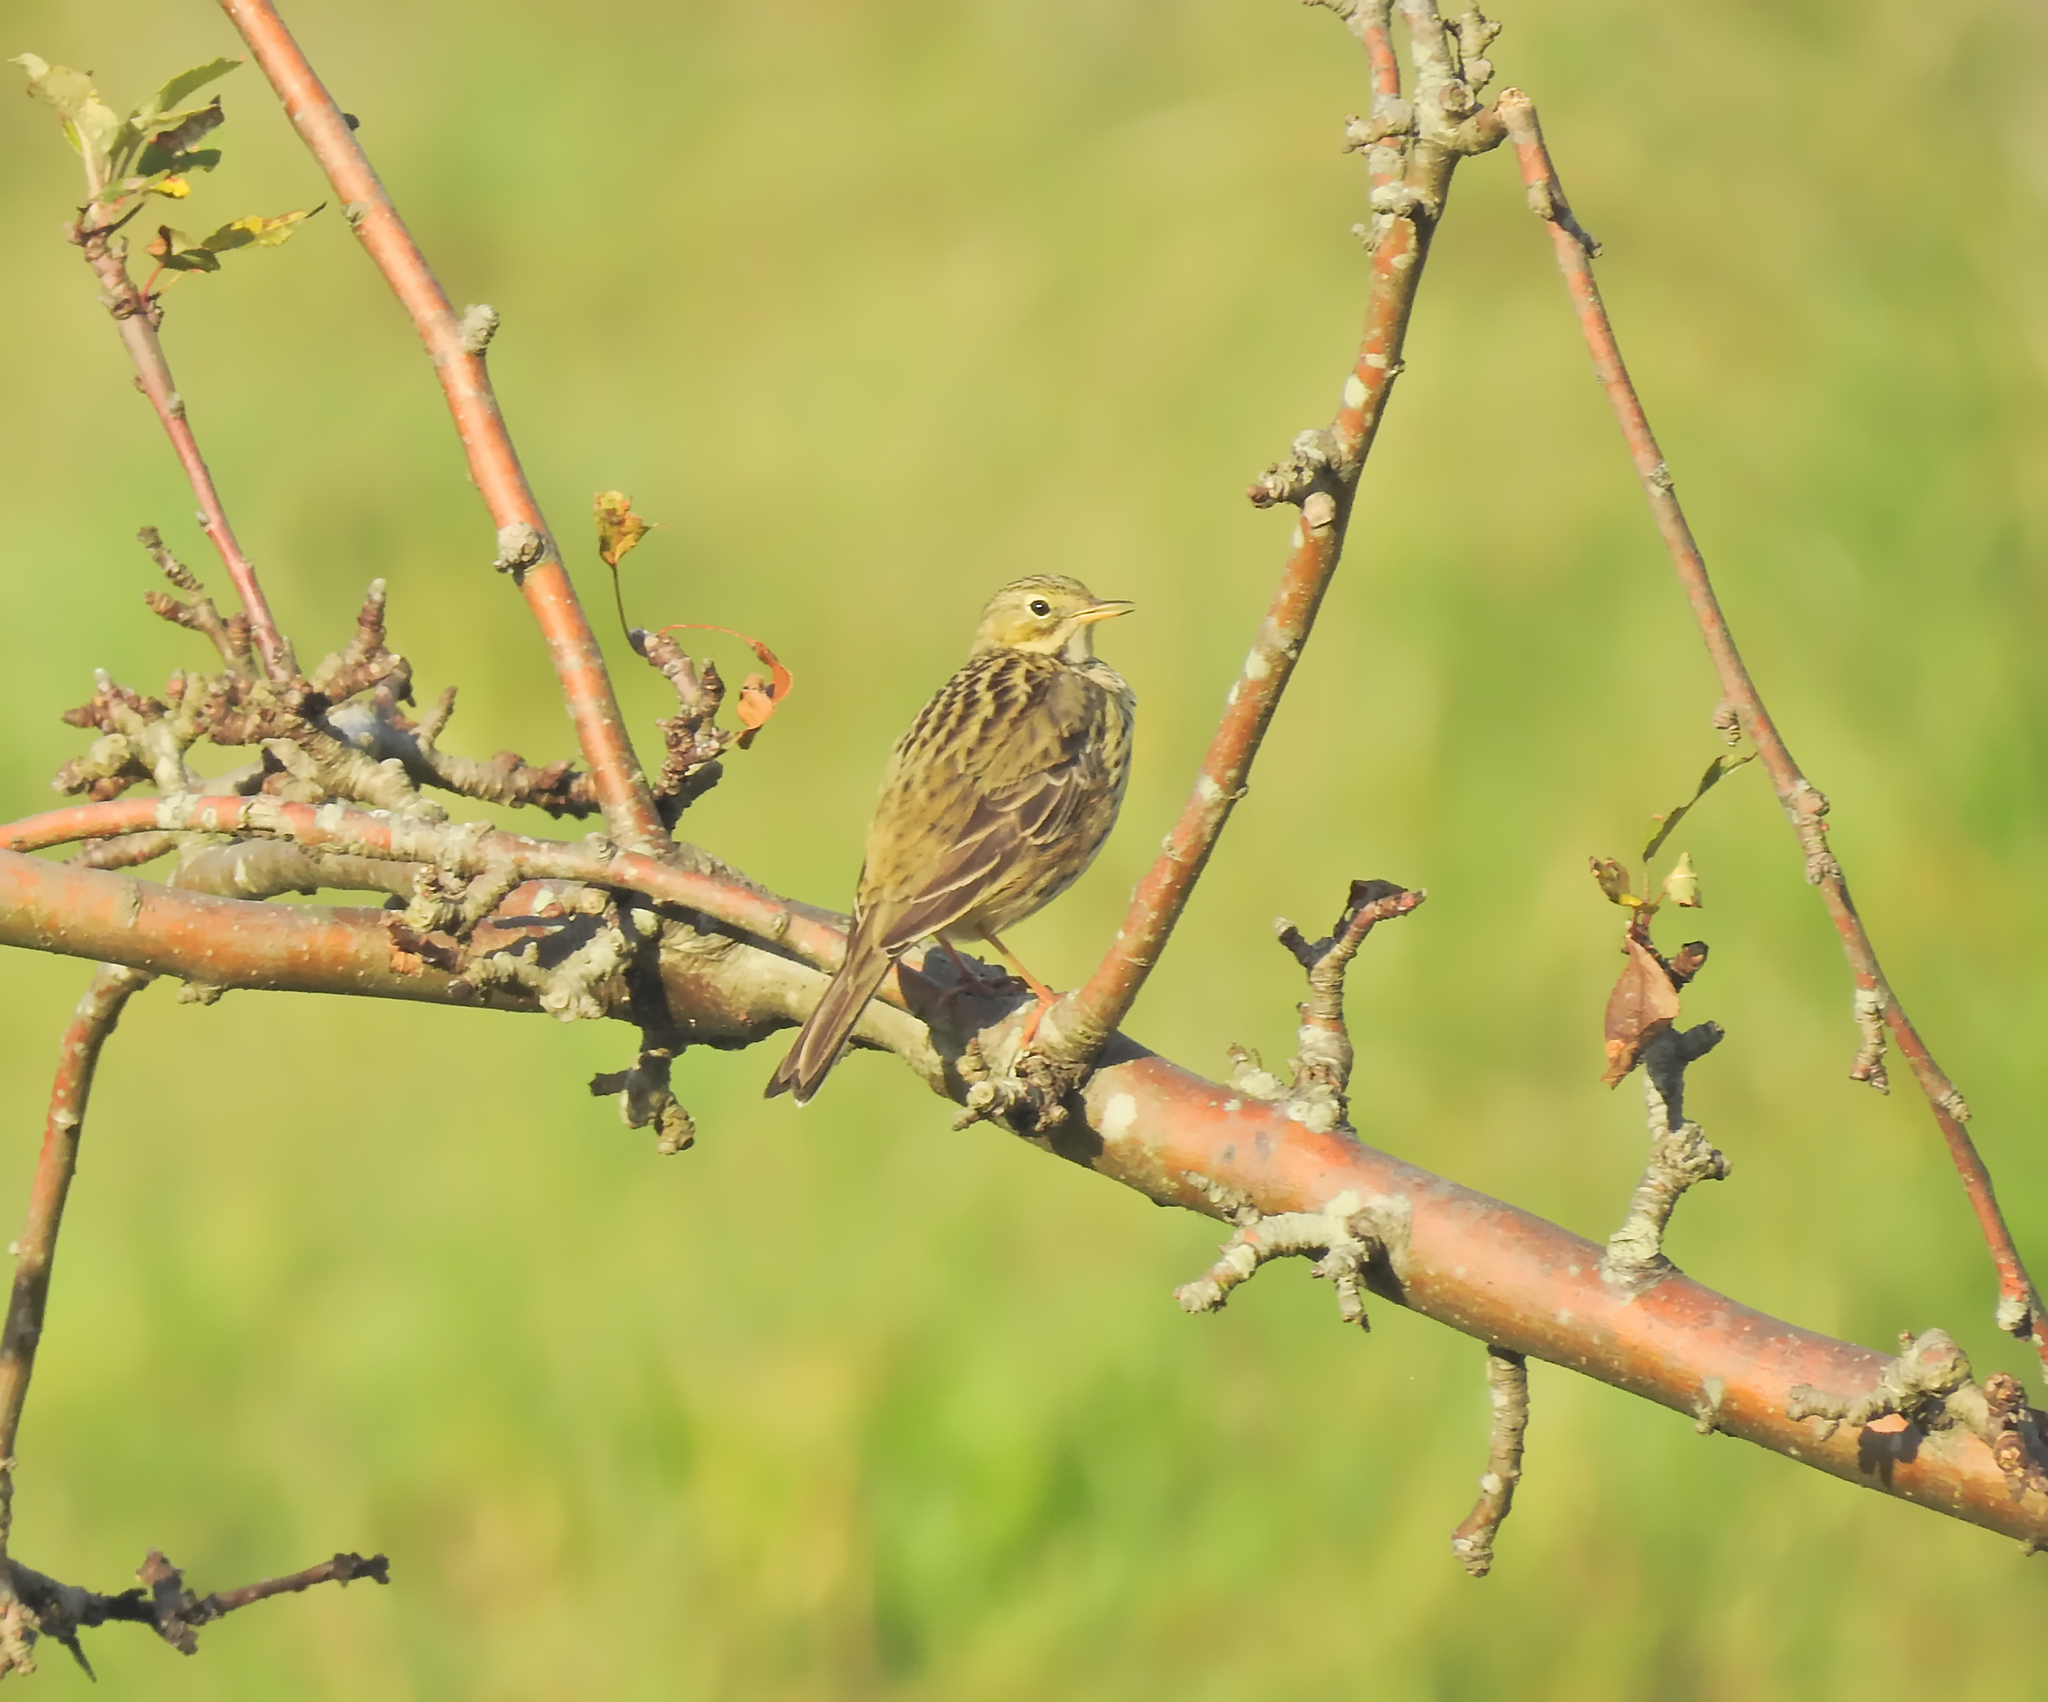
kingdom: Animalia
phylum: Chordata
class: Aves
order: Passeriformes
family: Motacillidae
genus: Anthus
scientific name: Anthus pratensis
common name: Meadow pipit
